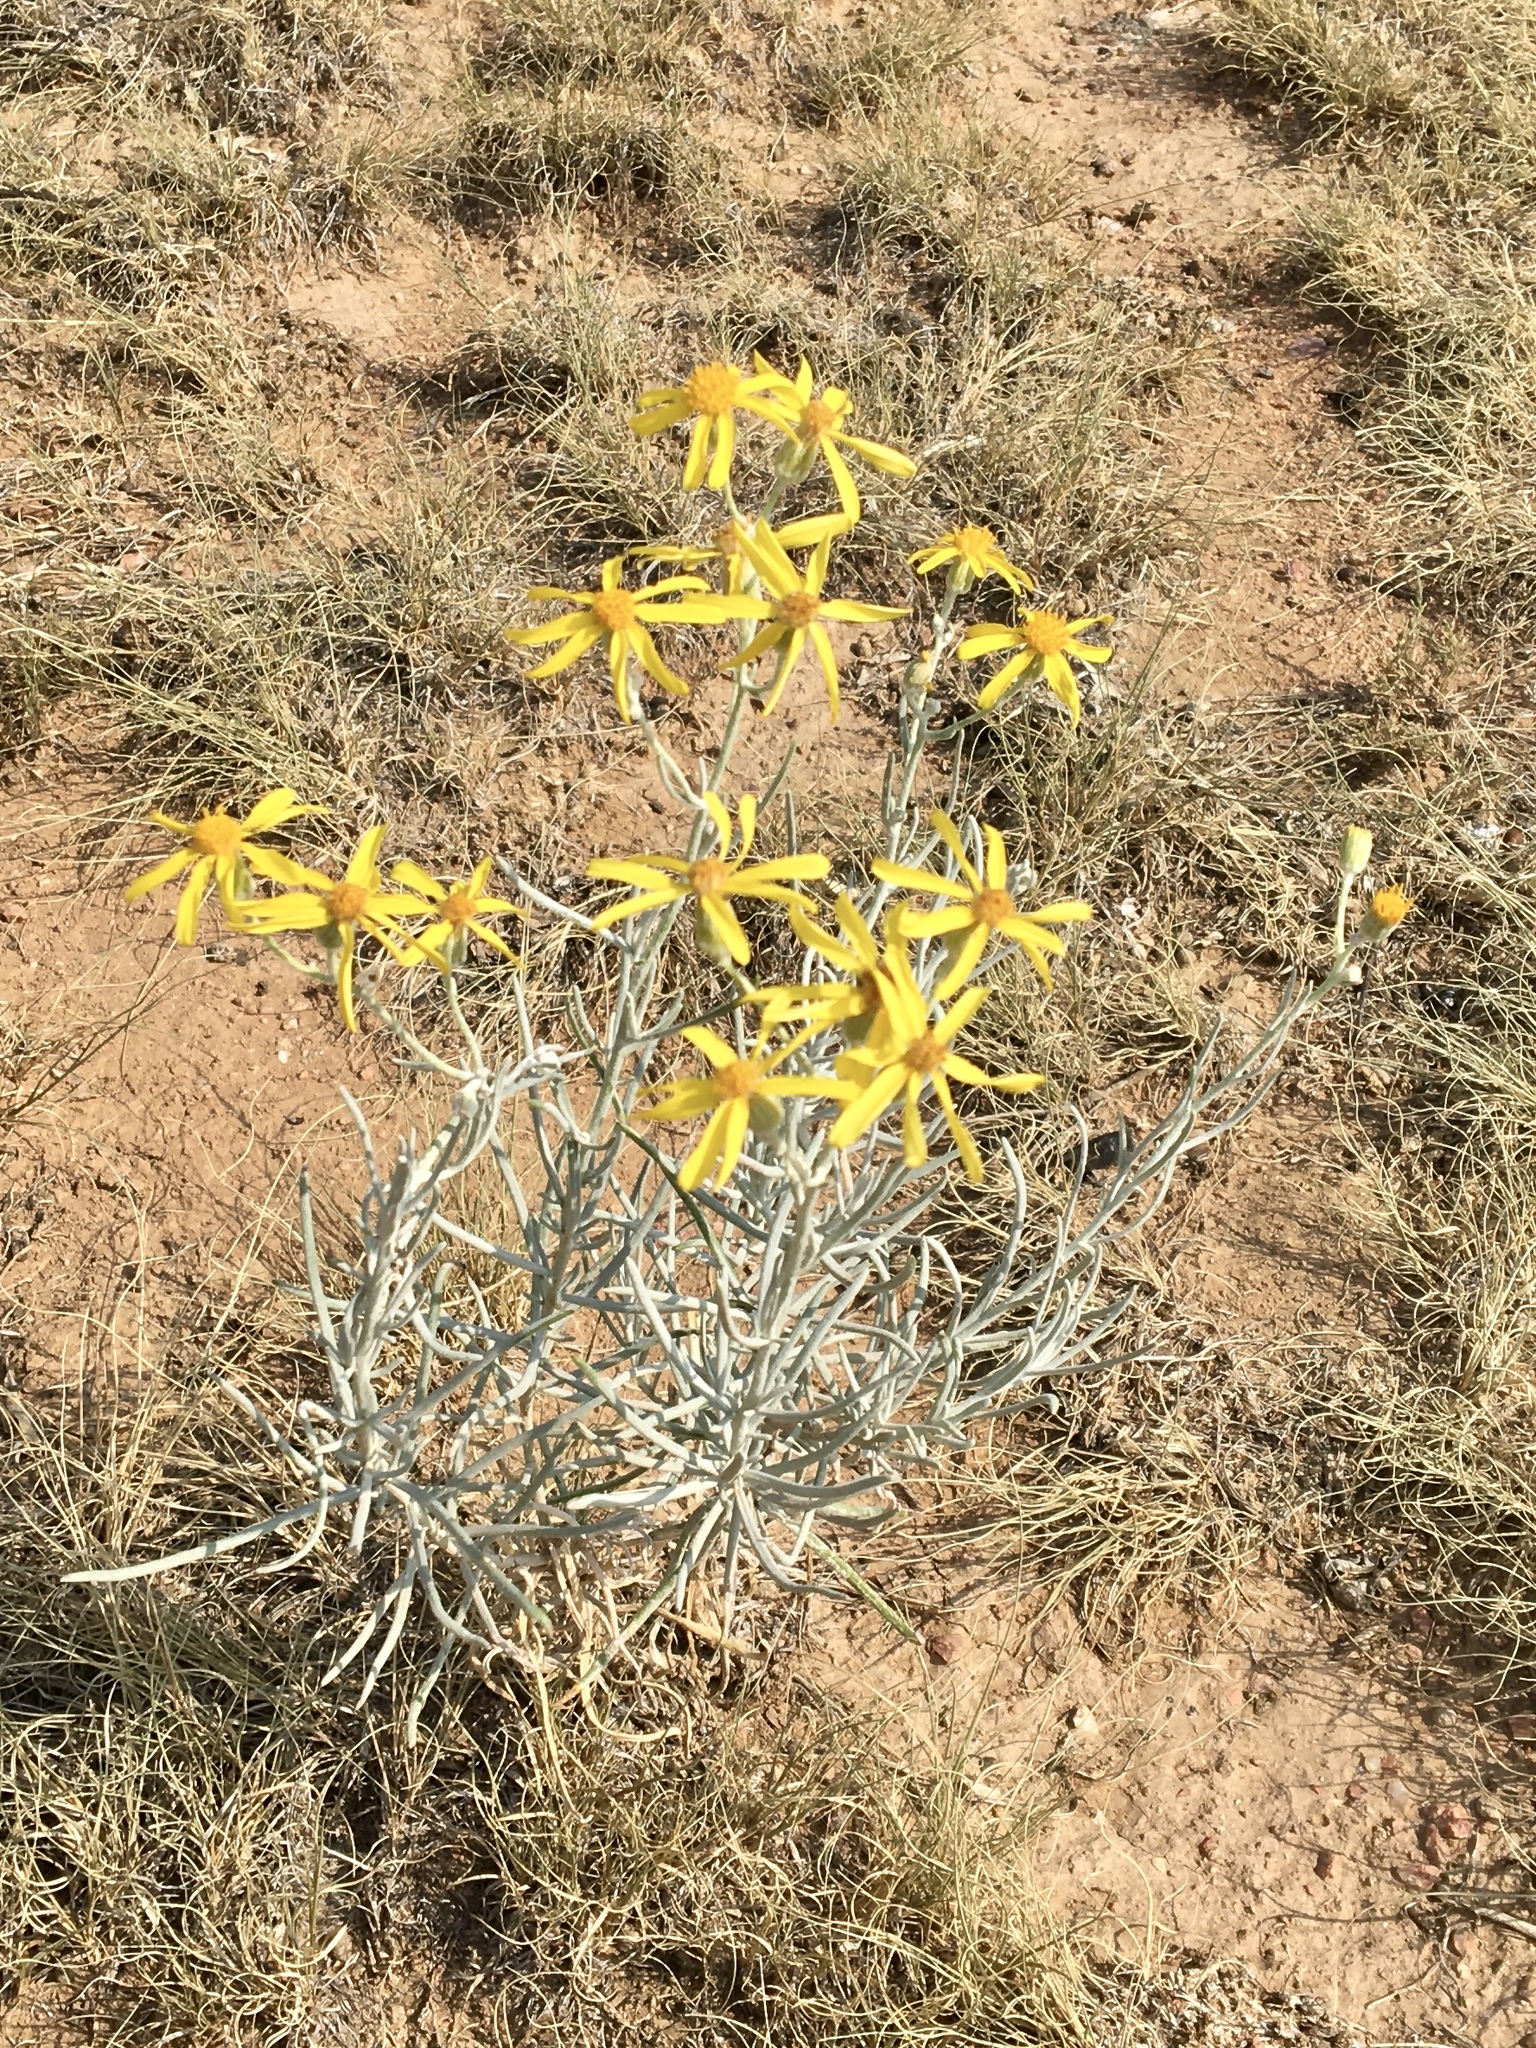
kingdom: Plantae
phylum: Tracheophyta
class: Magnoliopsida
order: Asterales
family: Asteraceae
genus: Senecio
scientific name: Senecio flaccidus
